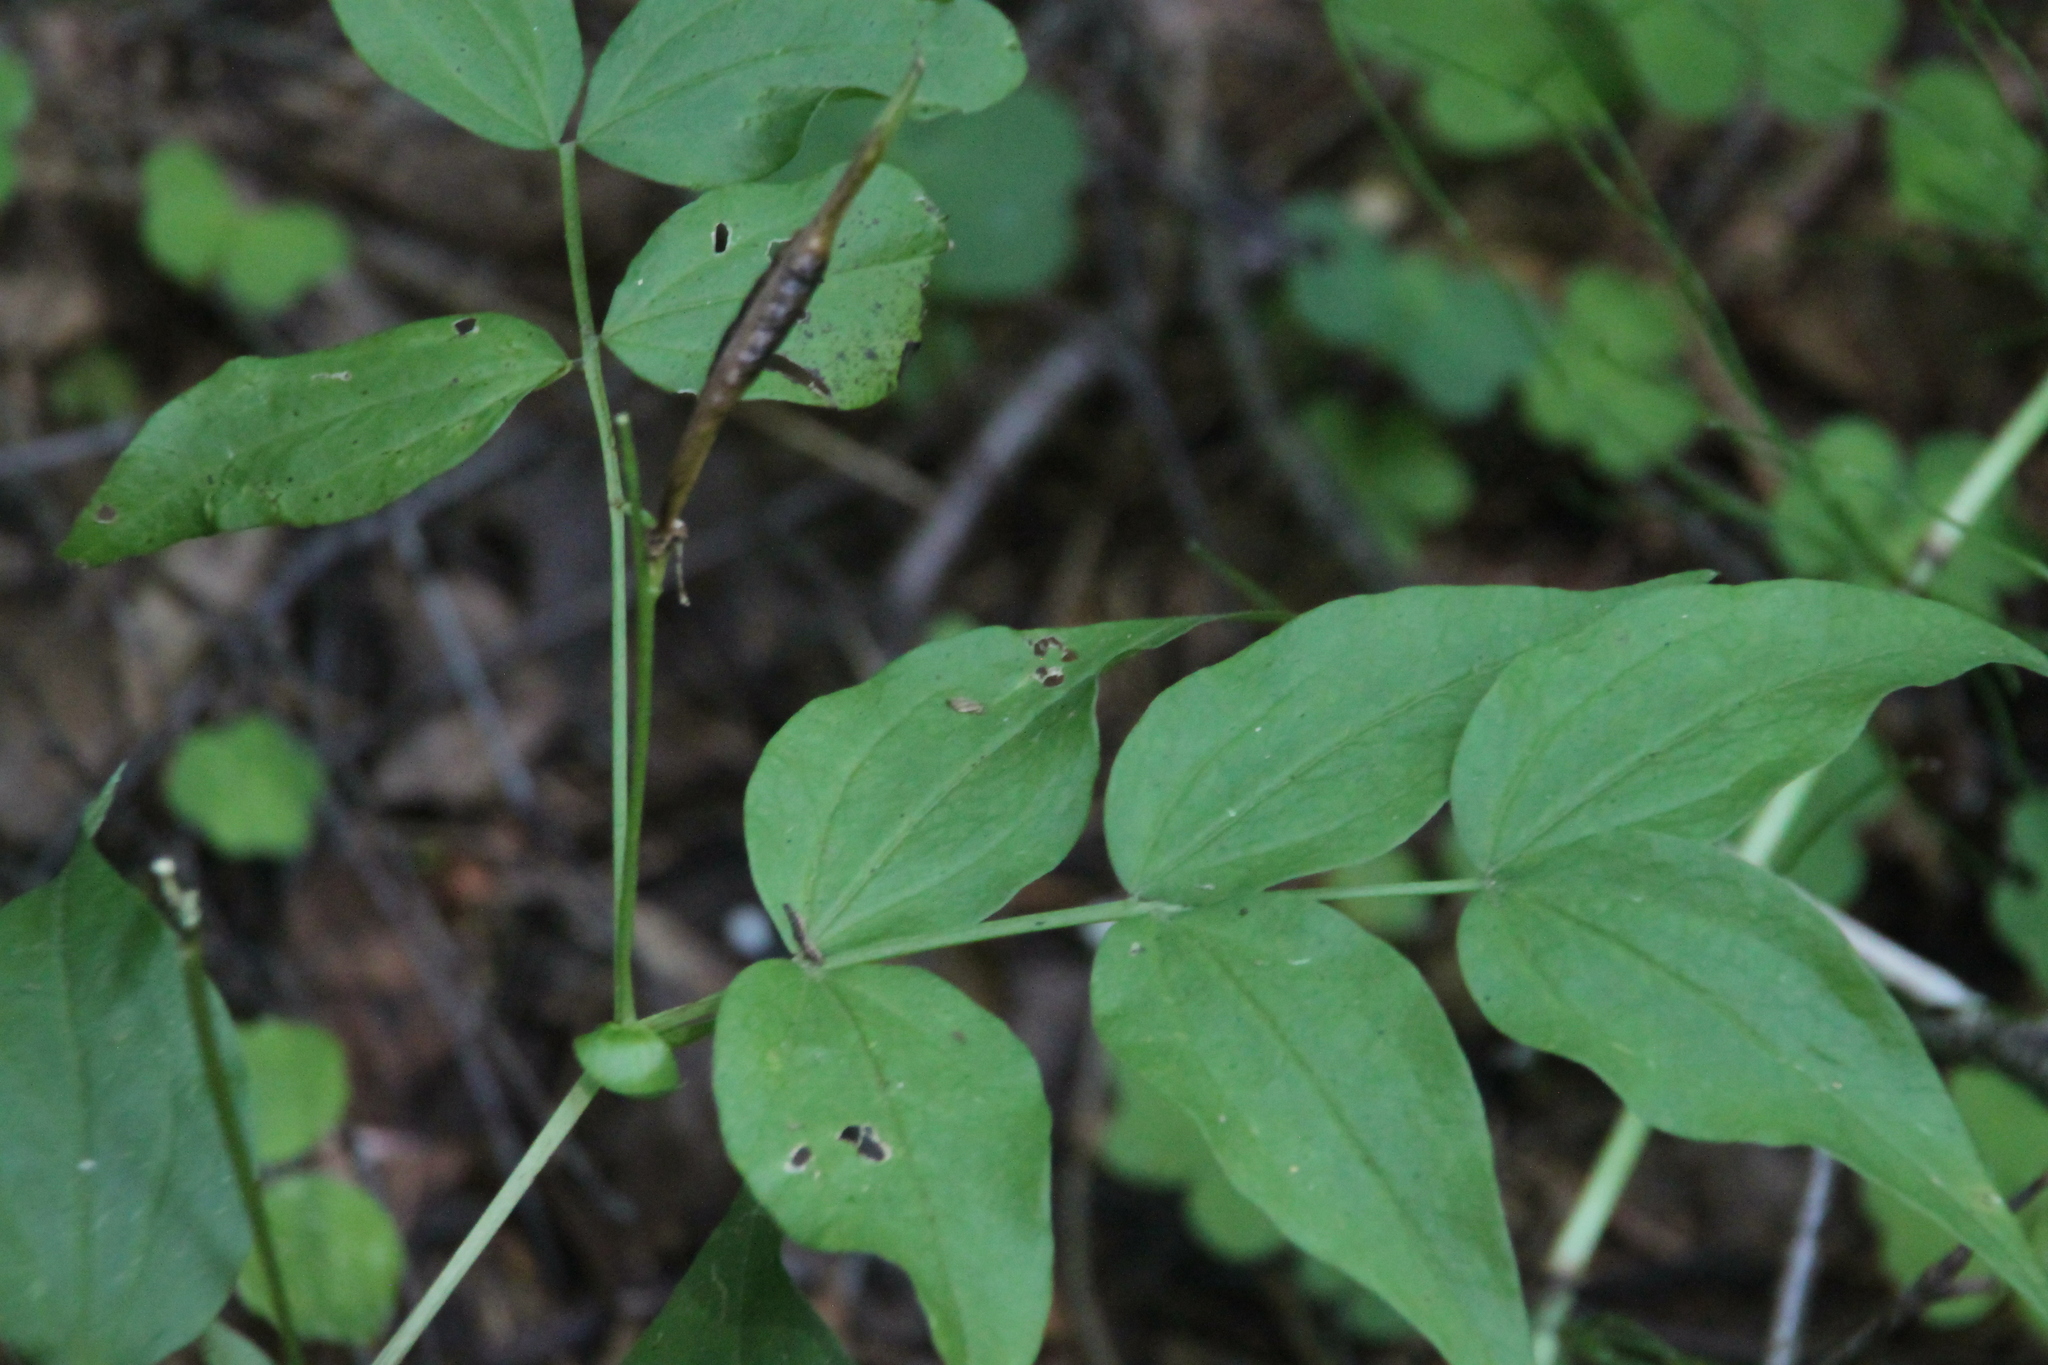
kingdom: Plantae
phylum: Tracheophyta
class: Magnoliopsida
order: Fabales
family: Fabaceae
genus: Lathyrus
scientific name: Lathyrus vernus
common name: Spring pea
